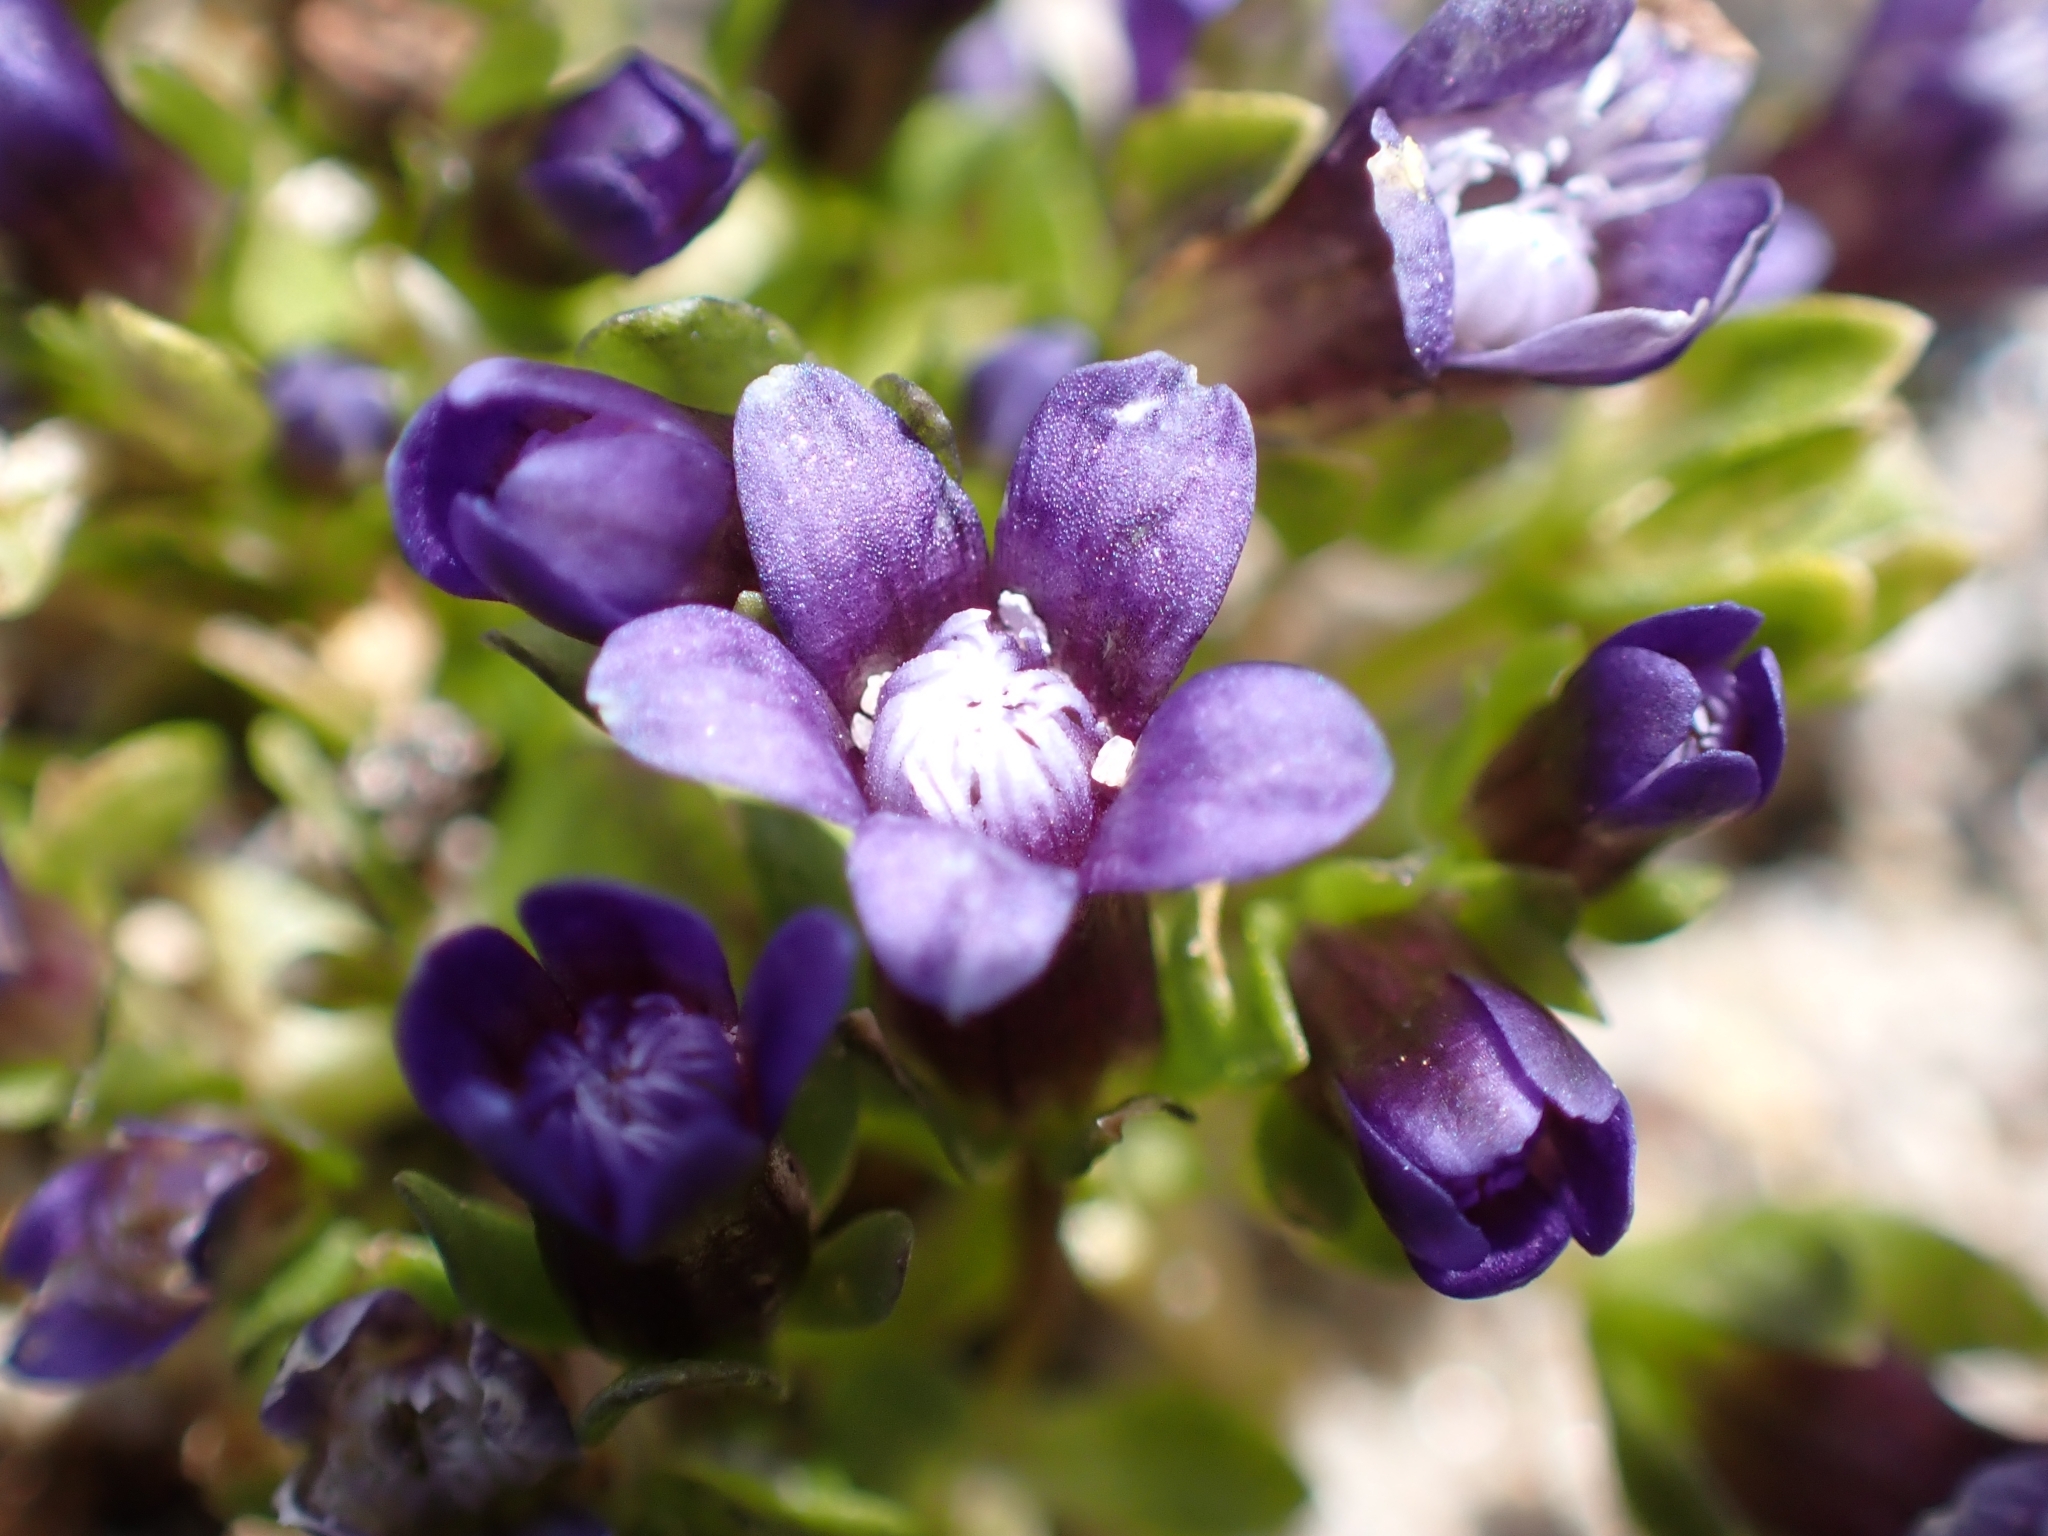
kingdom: Plantae
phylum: Tracheophyta
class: Magnoliopsida
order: Gentianales
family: Gentianaceae
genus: Comastoma
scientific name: Comastoma nanum
